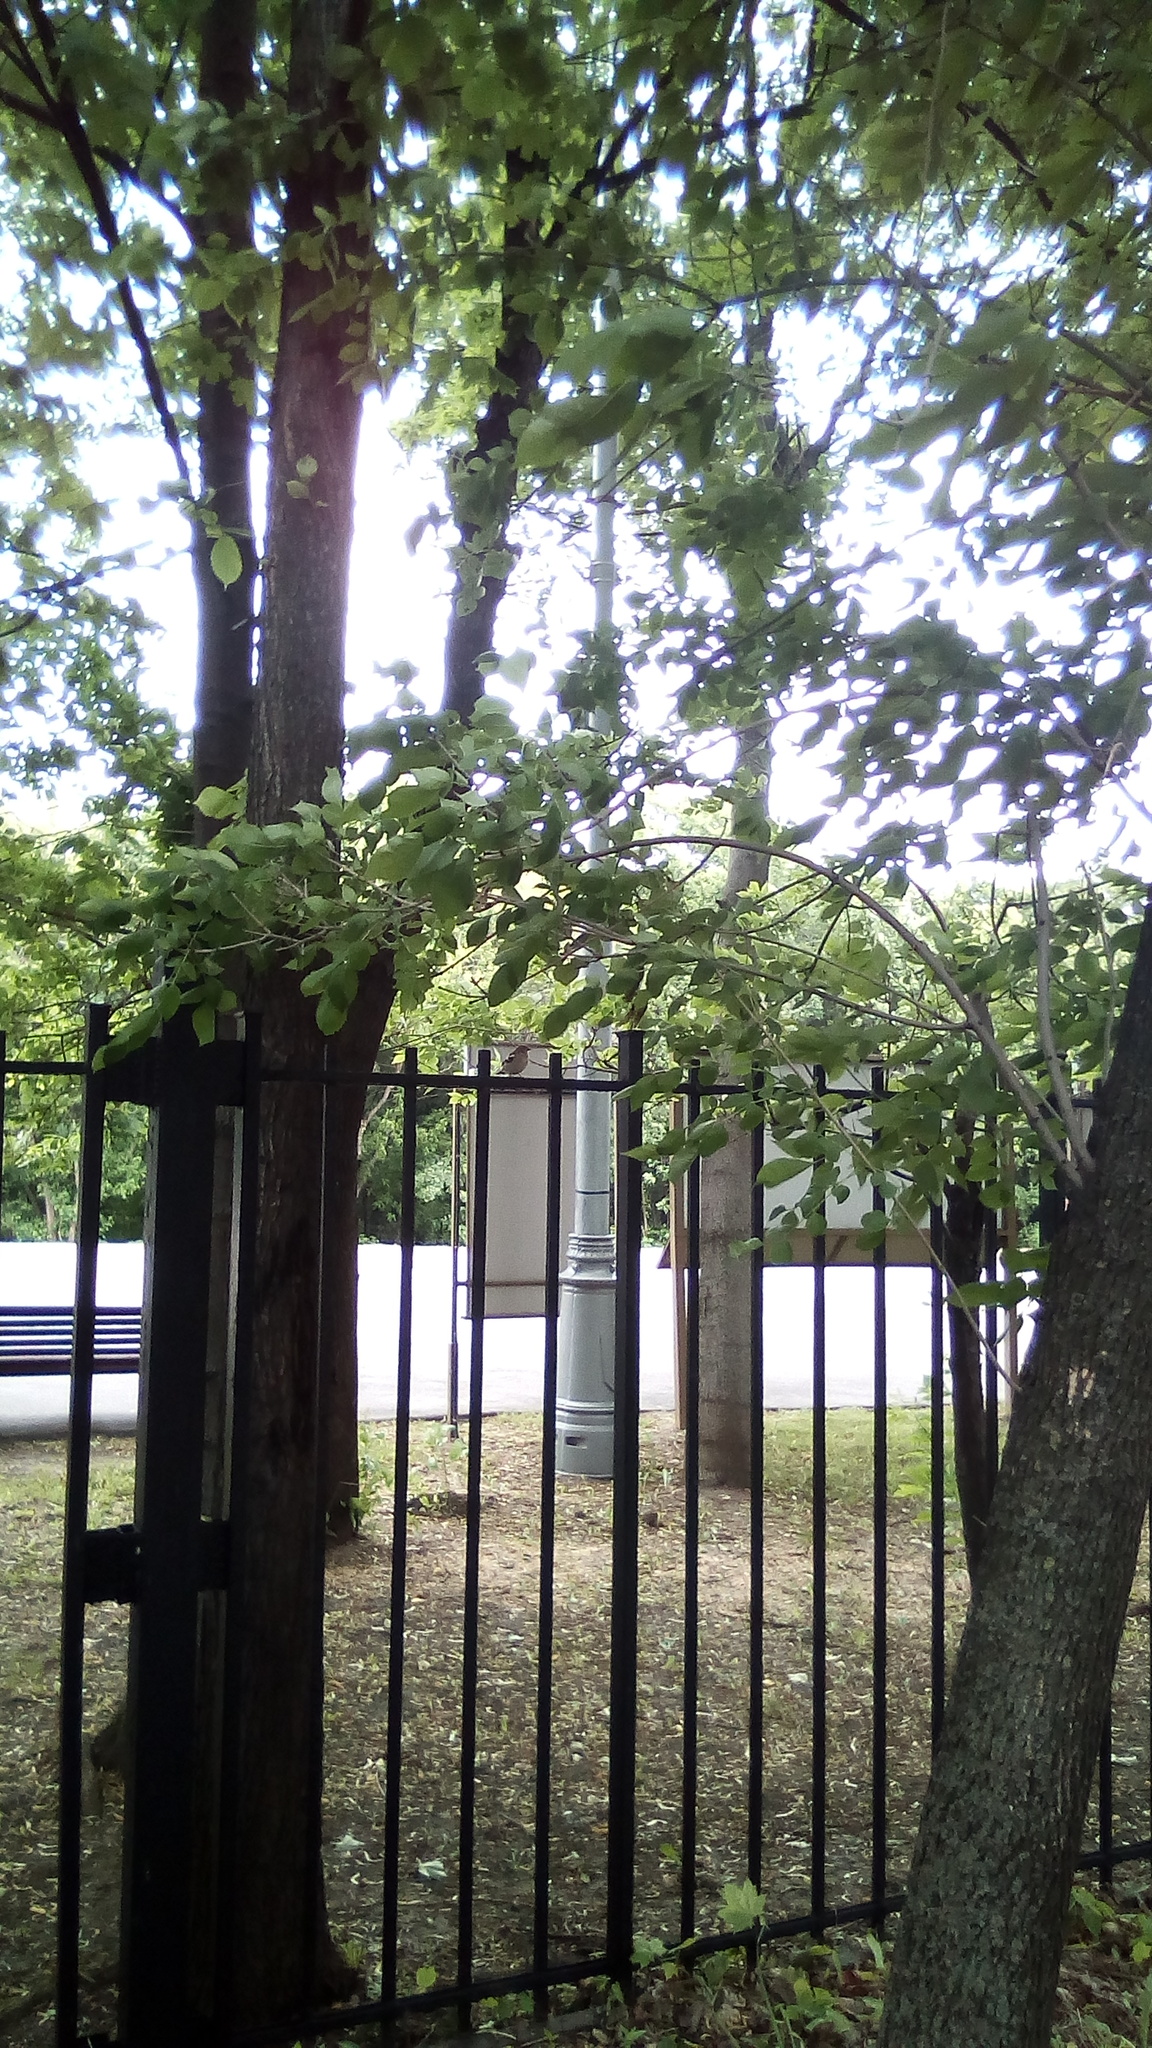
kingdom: Animalia
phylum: Chordata
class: Aves
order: Passeriformes
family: Fringillidae
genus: Fringilla
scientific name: Fringilla coelebs
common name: Common chaffinch
